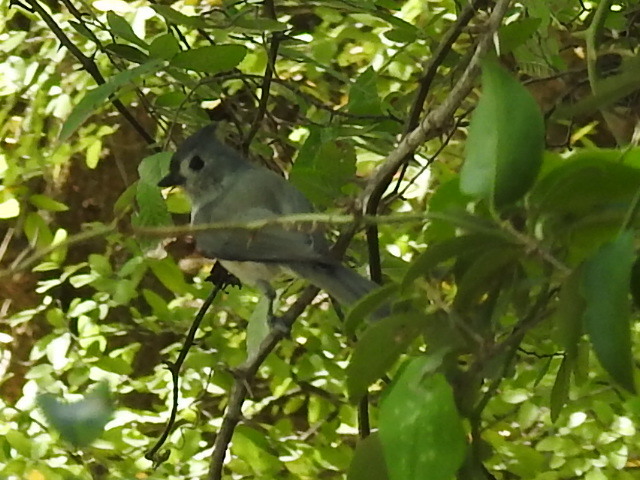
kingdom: Animalia
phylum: Chordata
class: Aves
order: Passeriformes
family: Paridae
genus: Baeolophus
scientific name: Baeolophus bicolor
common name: Tufted titmouse
